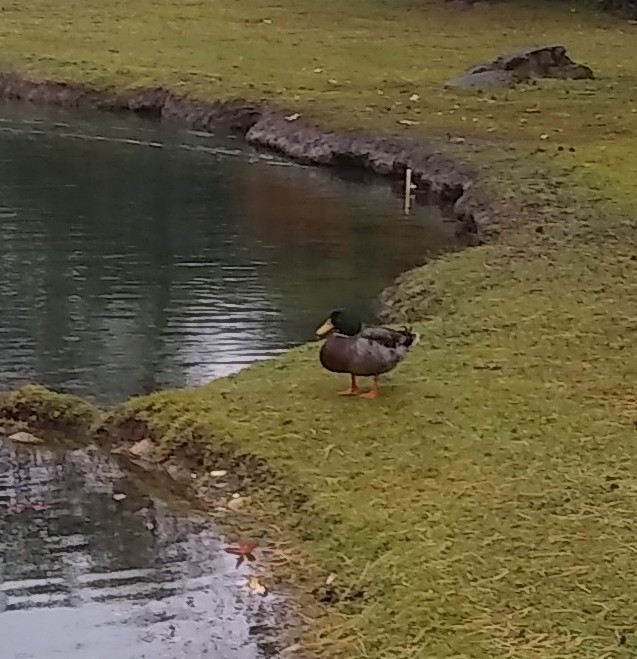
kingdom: Animalia
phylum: Chordata
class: Aves
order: Anseriformes
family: Anatidae
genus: Anas
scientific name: Anas platyrhynchos
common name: Mallard
